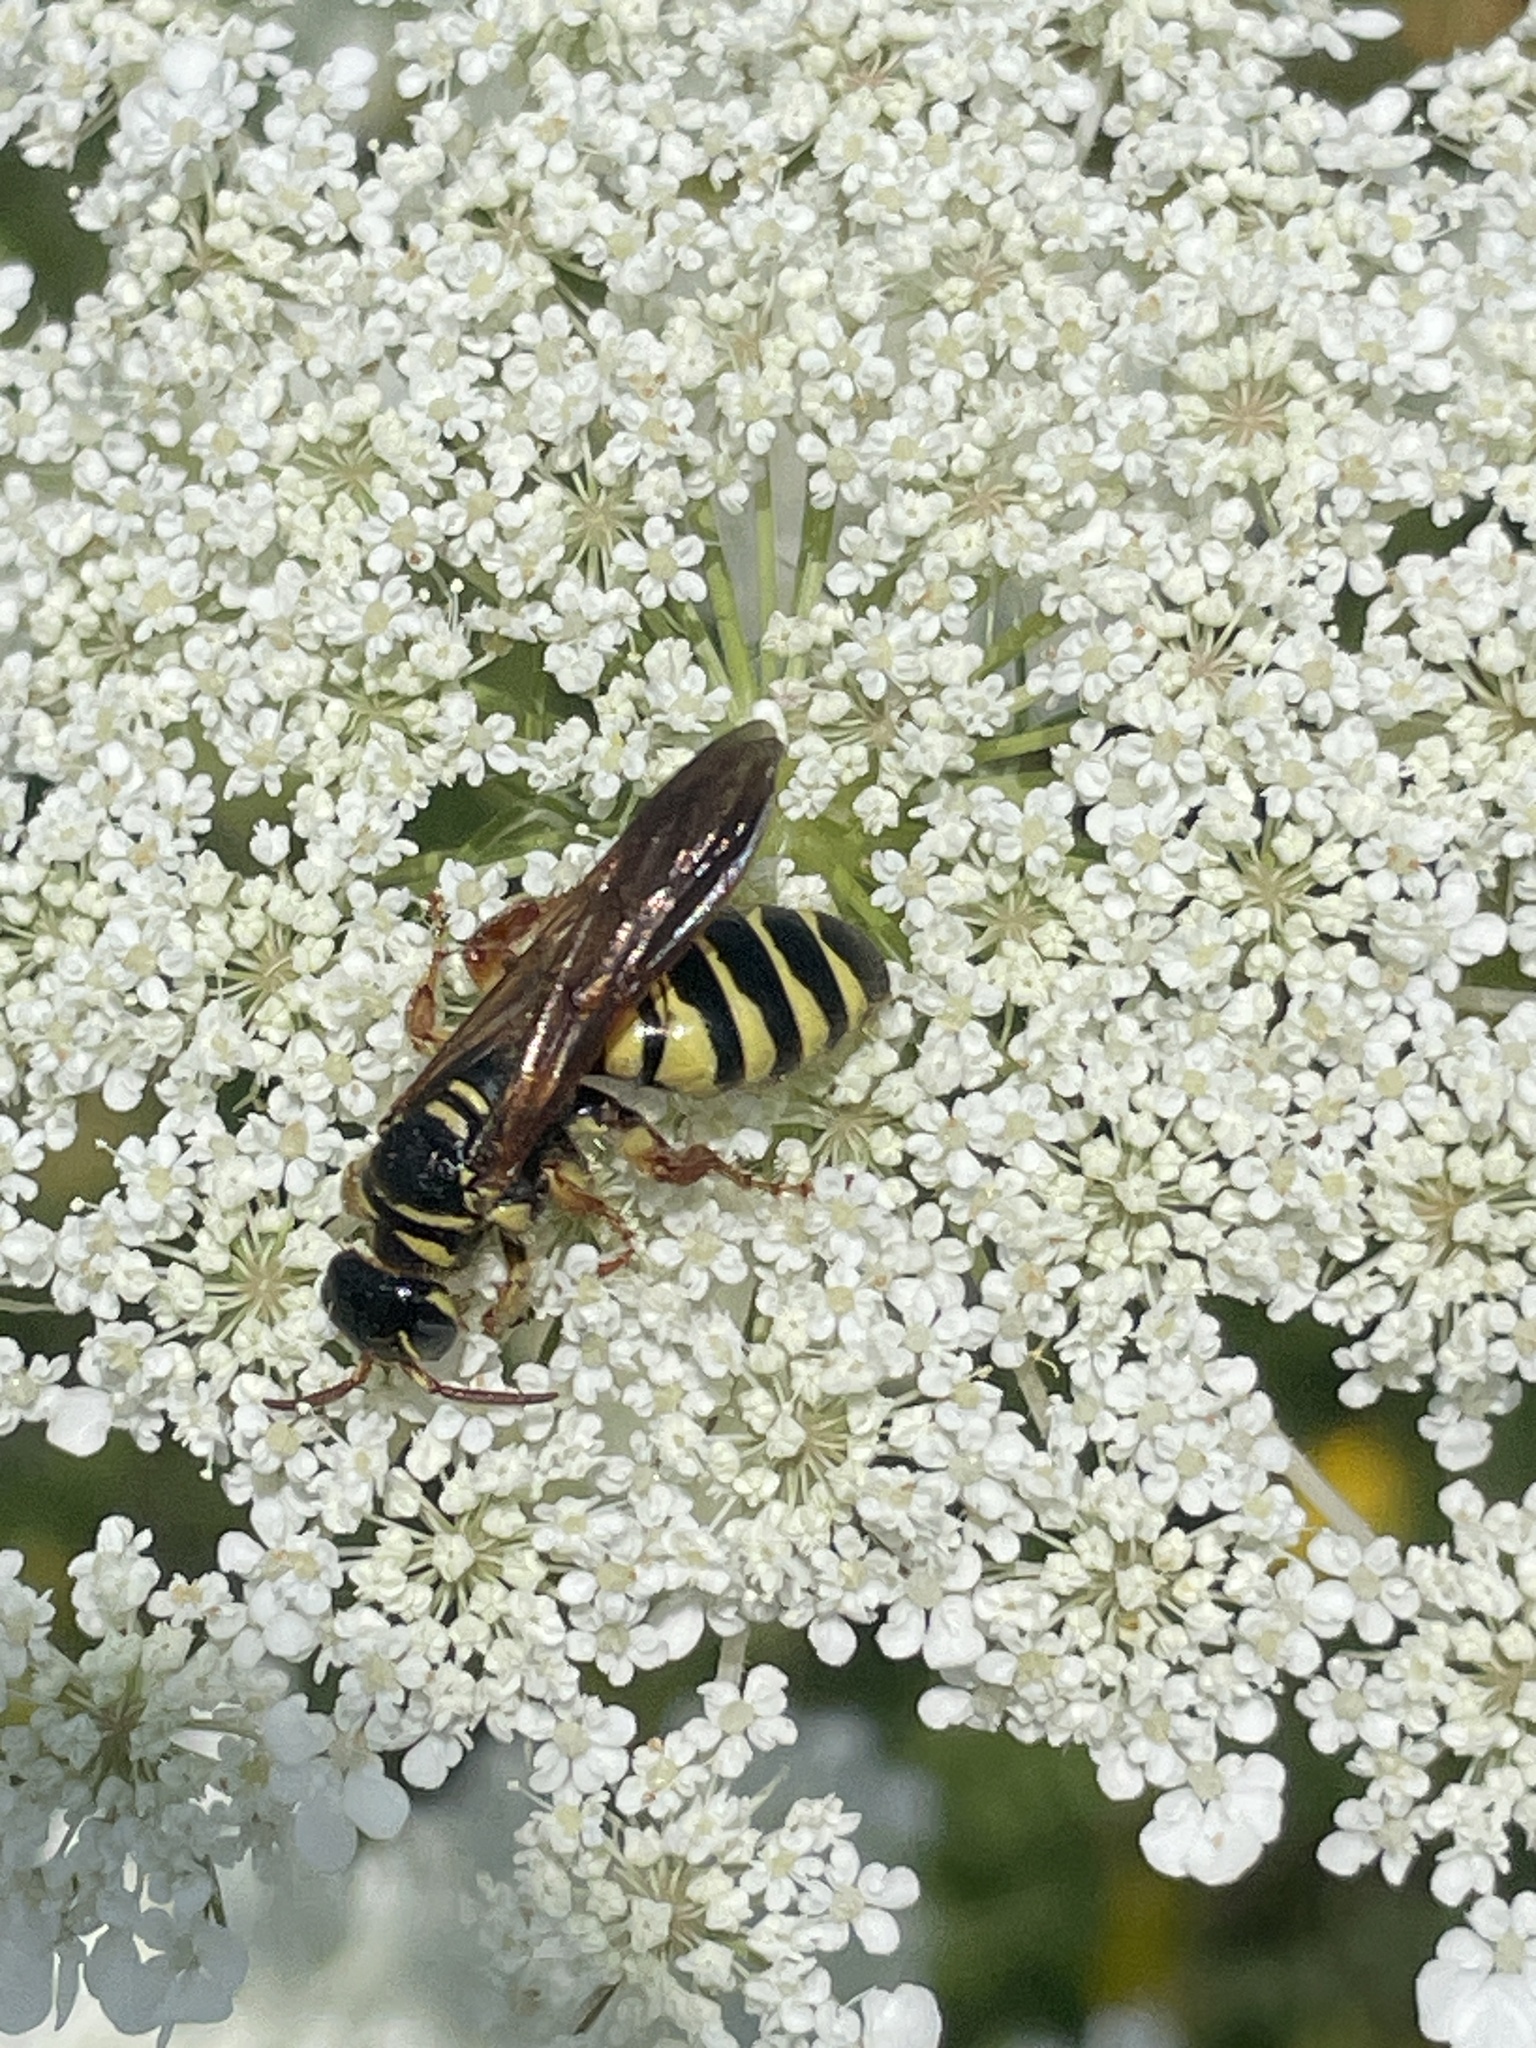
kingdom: Animalia
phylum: Arthropoda
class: Insecta
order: Hymenoptera
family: Tiphiidae
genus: Myzinum
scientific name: Myzinum quinquecinctum
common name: Five-banded thynnid wasp
